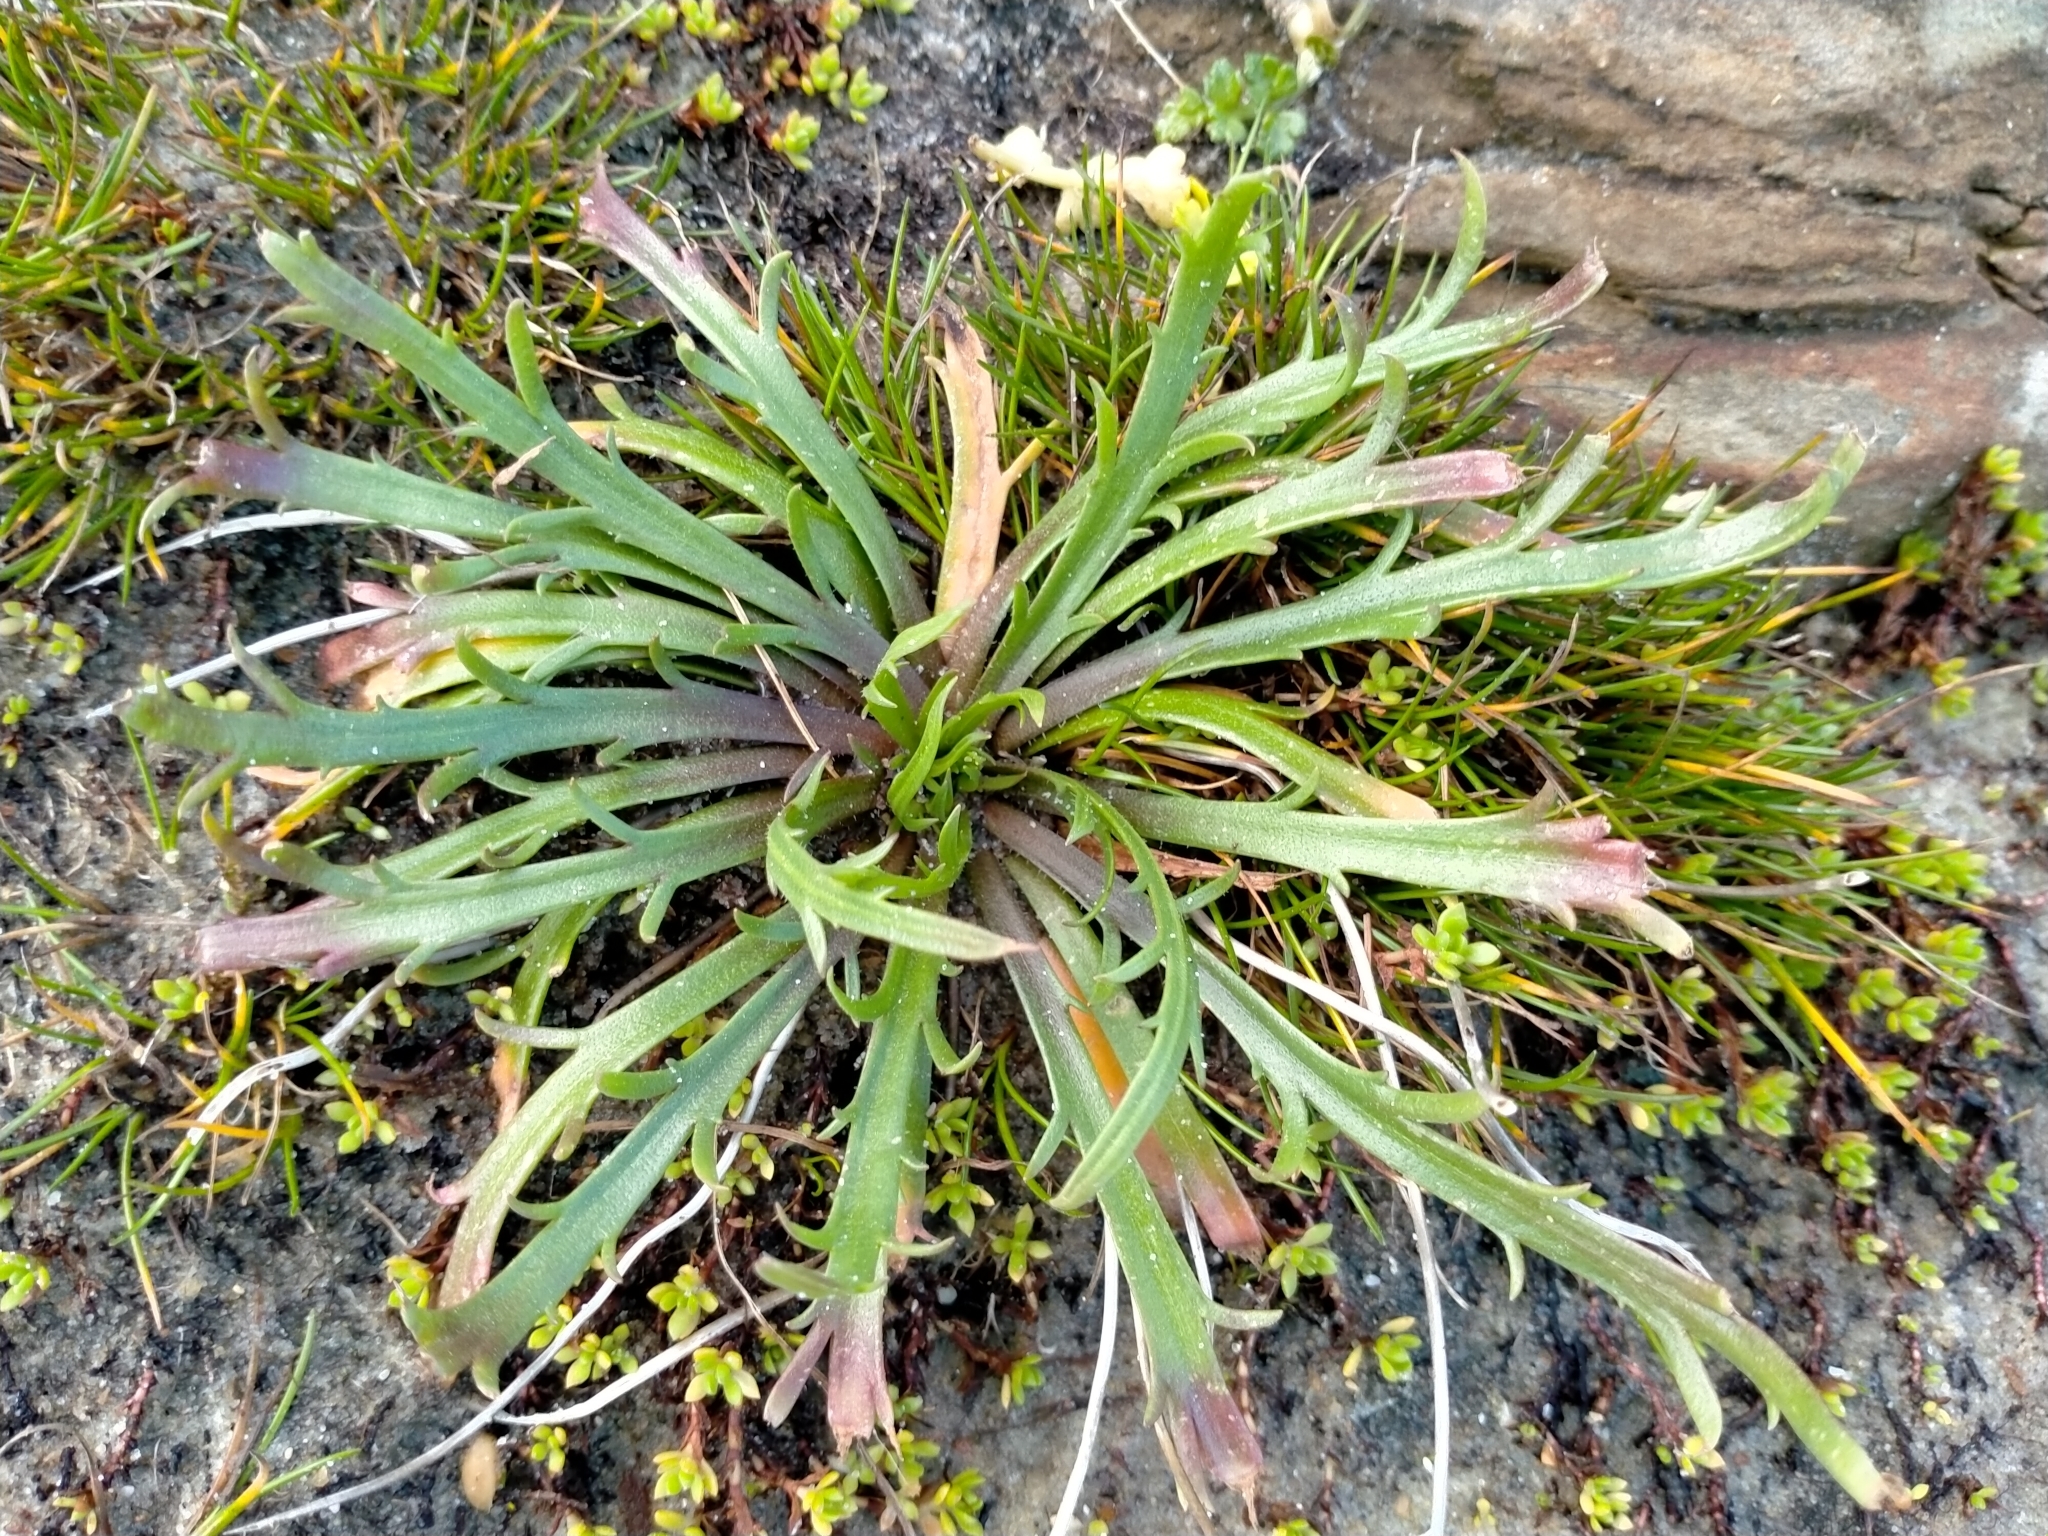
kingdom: Plantae
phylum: Tracheophyta
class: Magnoliopsida
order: Lamiales
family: Plantaginaceae
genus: Plantago
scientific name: Plantago coronopus
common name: Buck's-horn plantain
